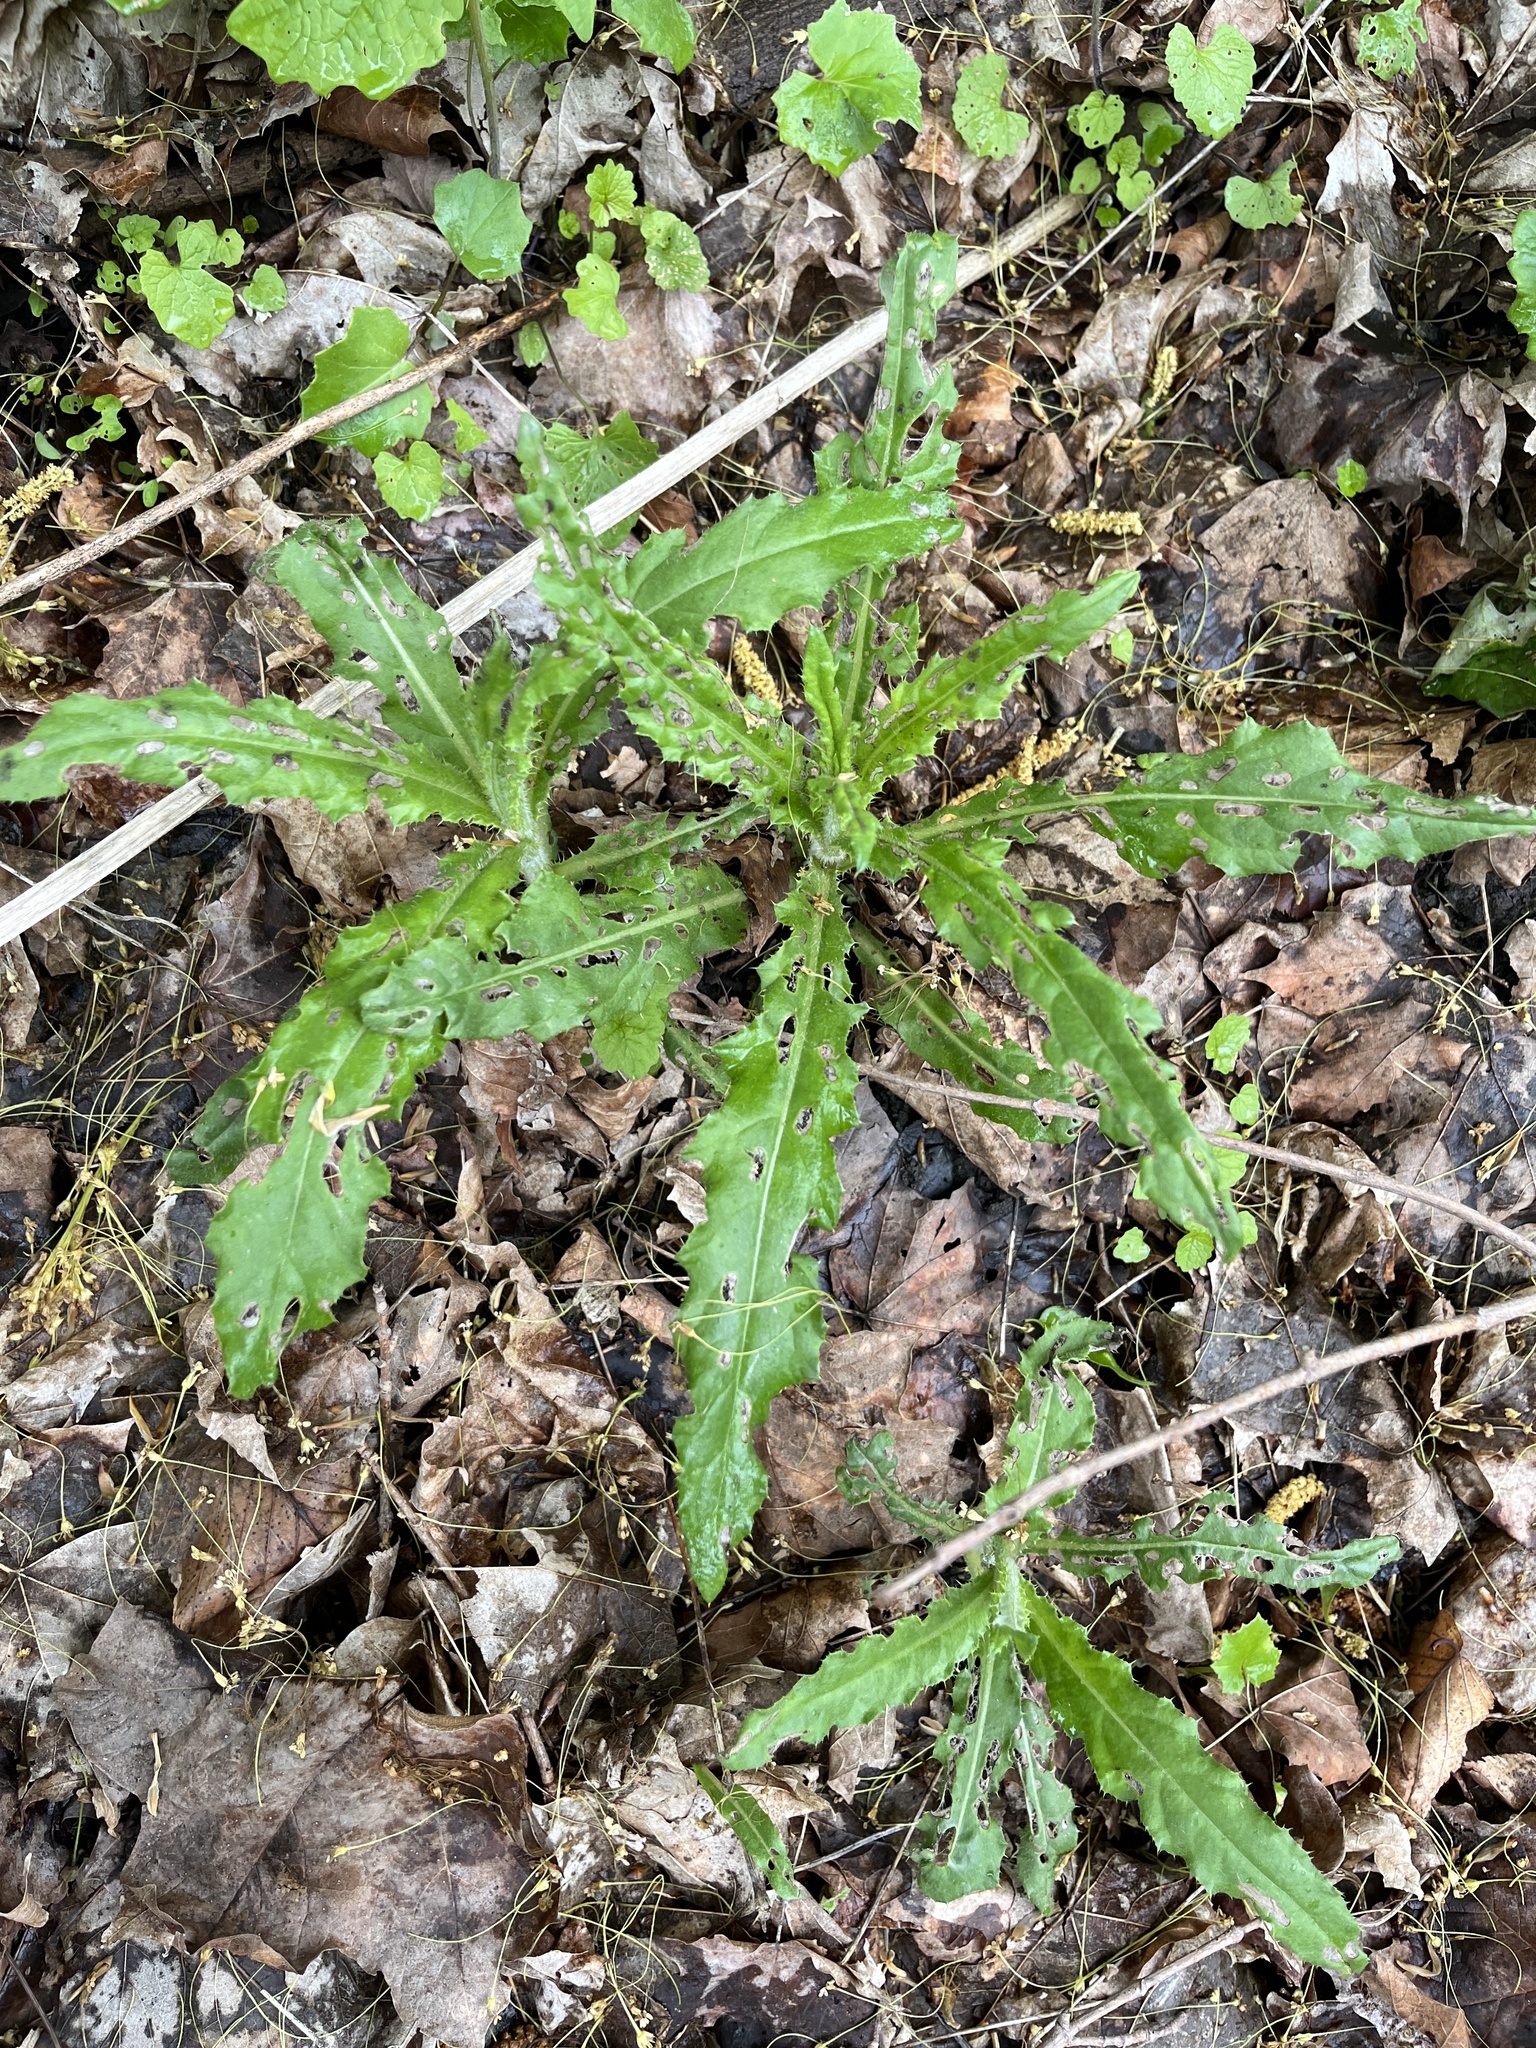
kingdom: Plantae
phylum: Tracheophyta
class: Magnoliopsida
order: Asterales
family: Asteraceae
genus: Cirsium
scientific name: Cirsium arvense
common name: Creeping thistle
